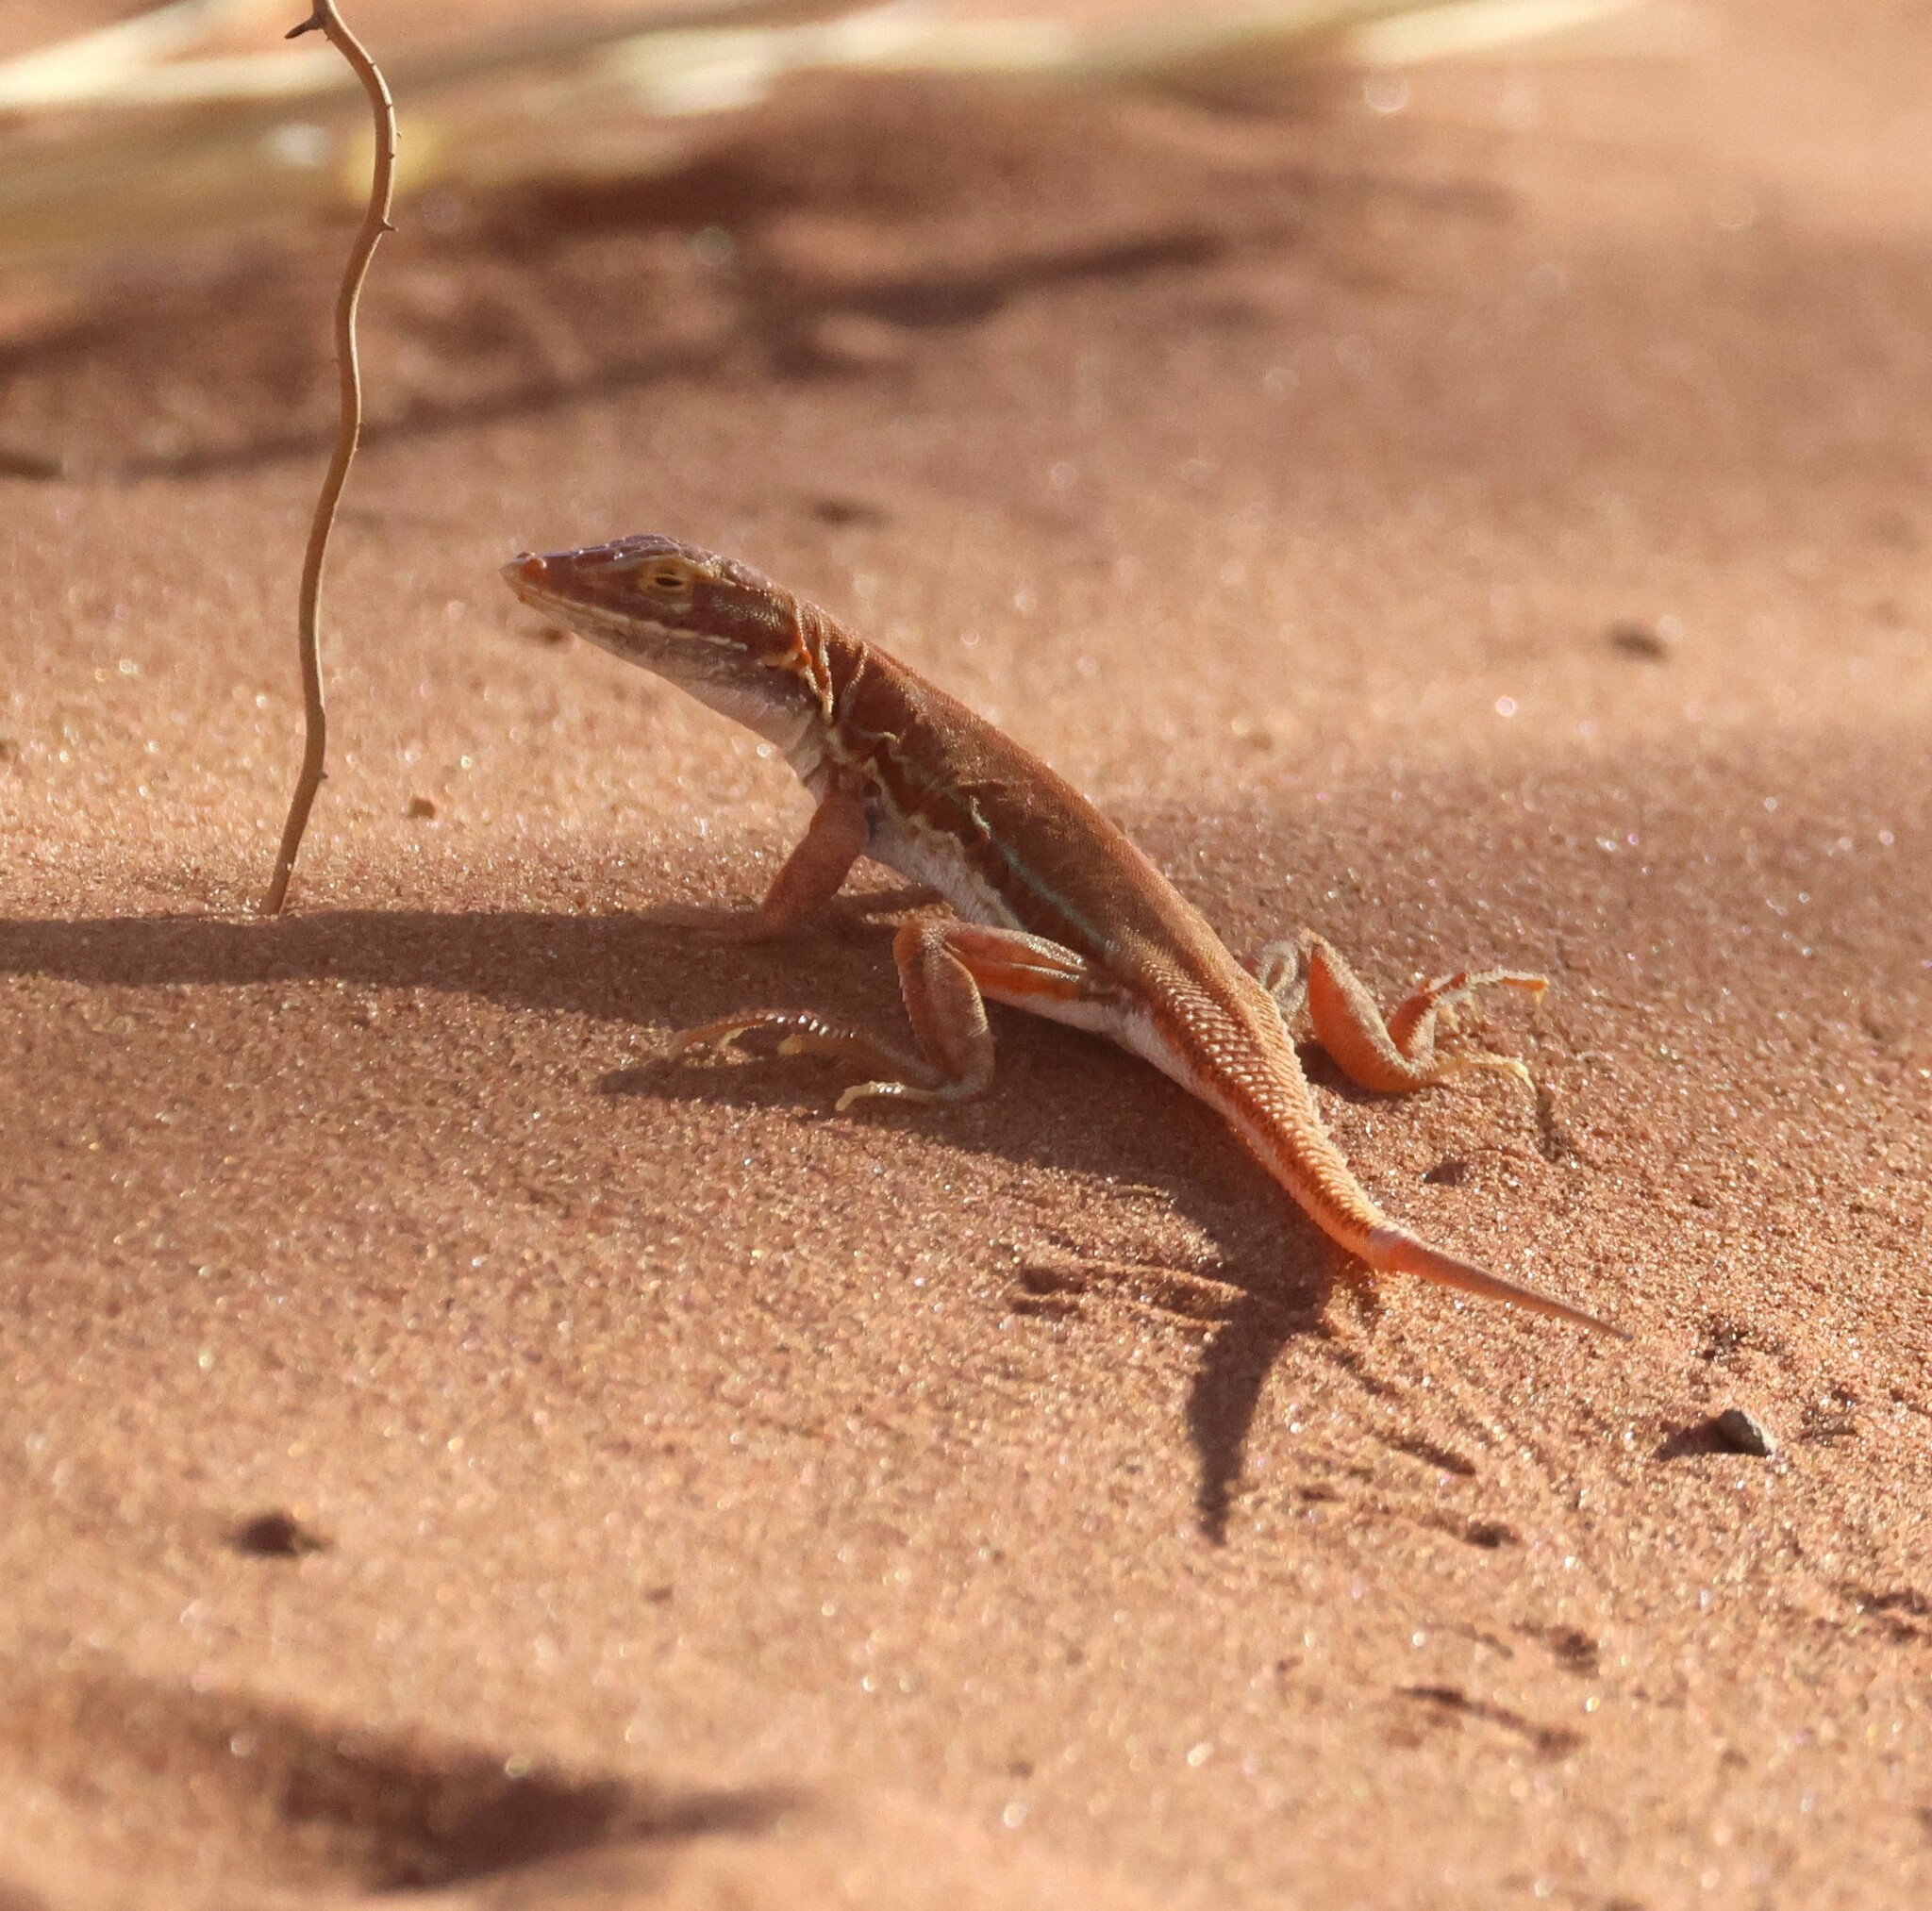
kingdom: Animalia
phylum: Chordata
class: Squamata
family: Lacertidae
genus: Meroles
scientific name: Meroles cuneirostris
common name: Wedge-snouted desert lizard
